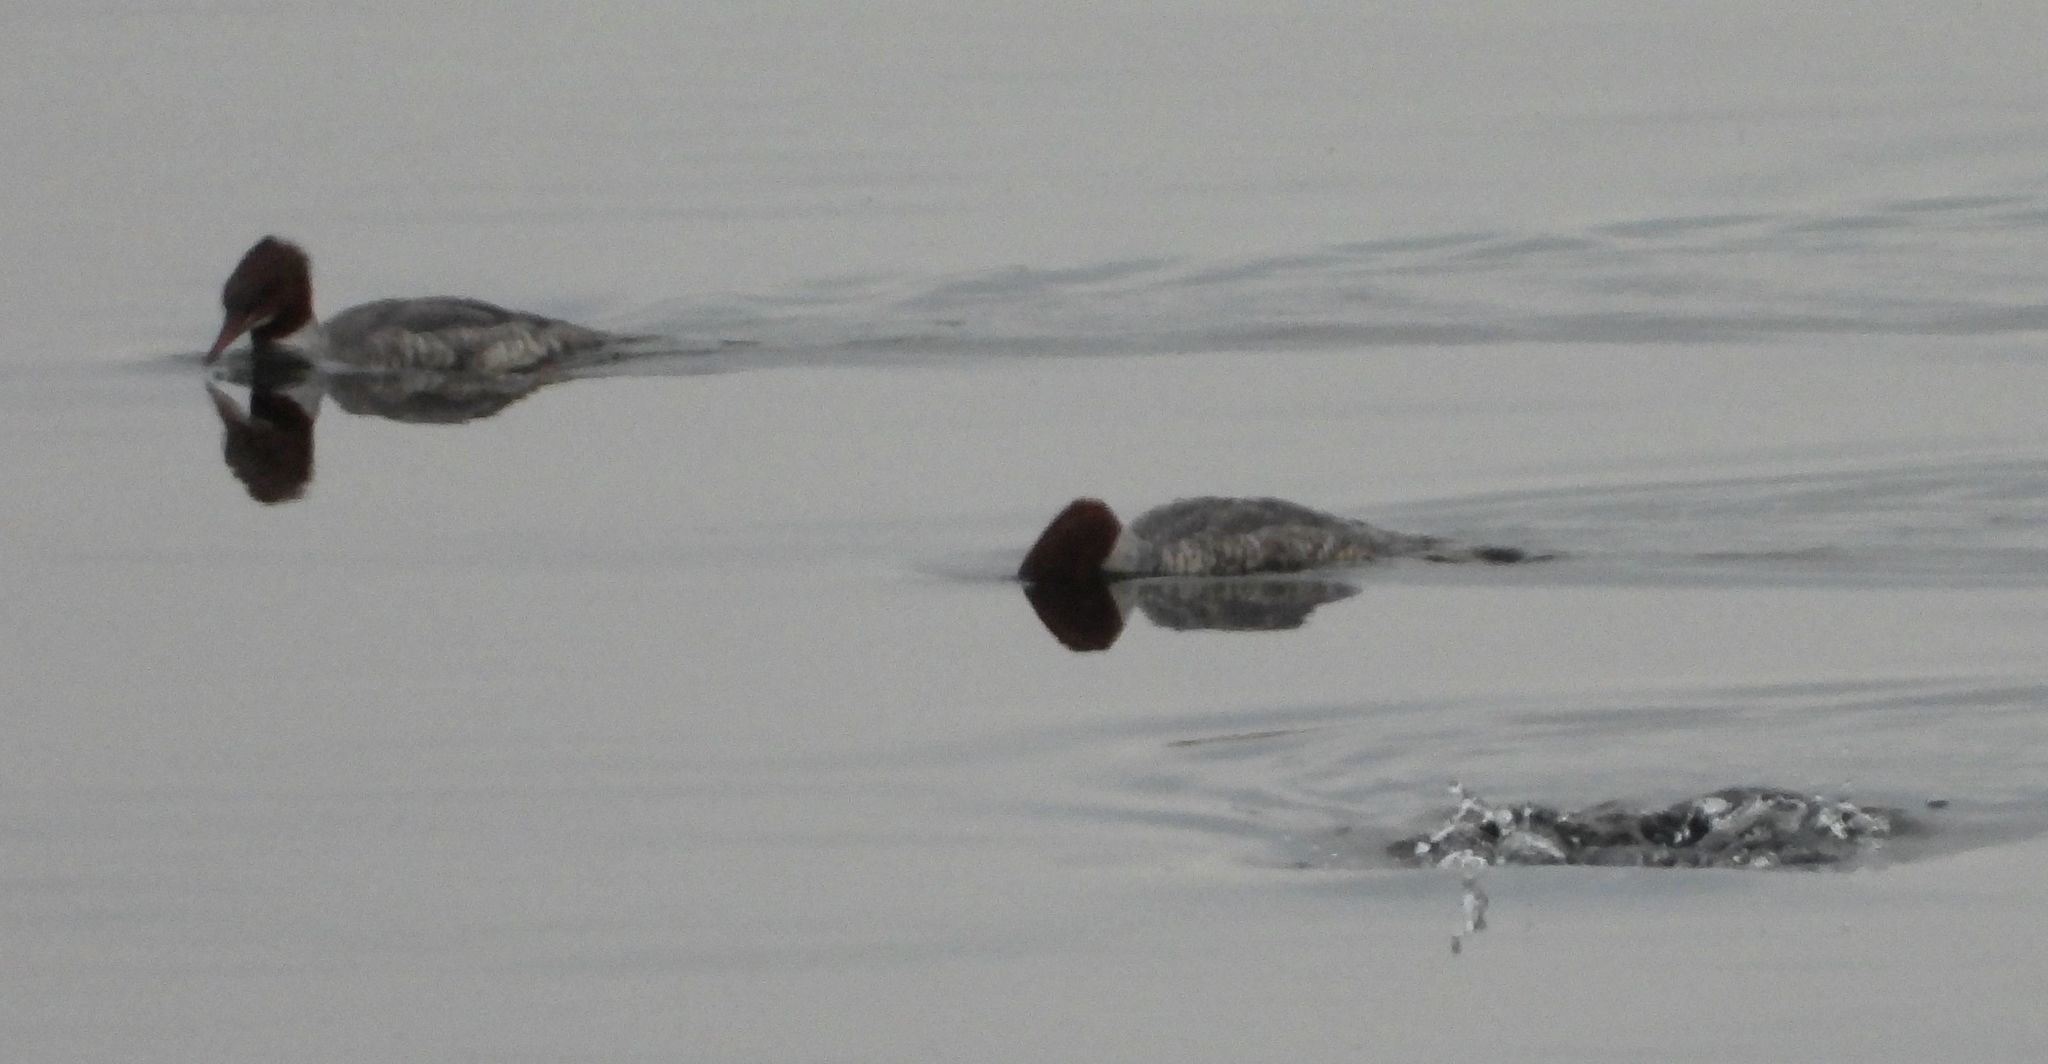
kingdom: Animalia
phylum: Chordata
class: Aves
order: Anseriformes
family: Anatidae
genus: Mergus
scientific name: Mergus merganser
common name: Common merganser
